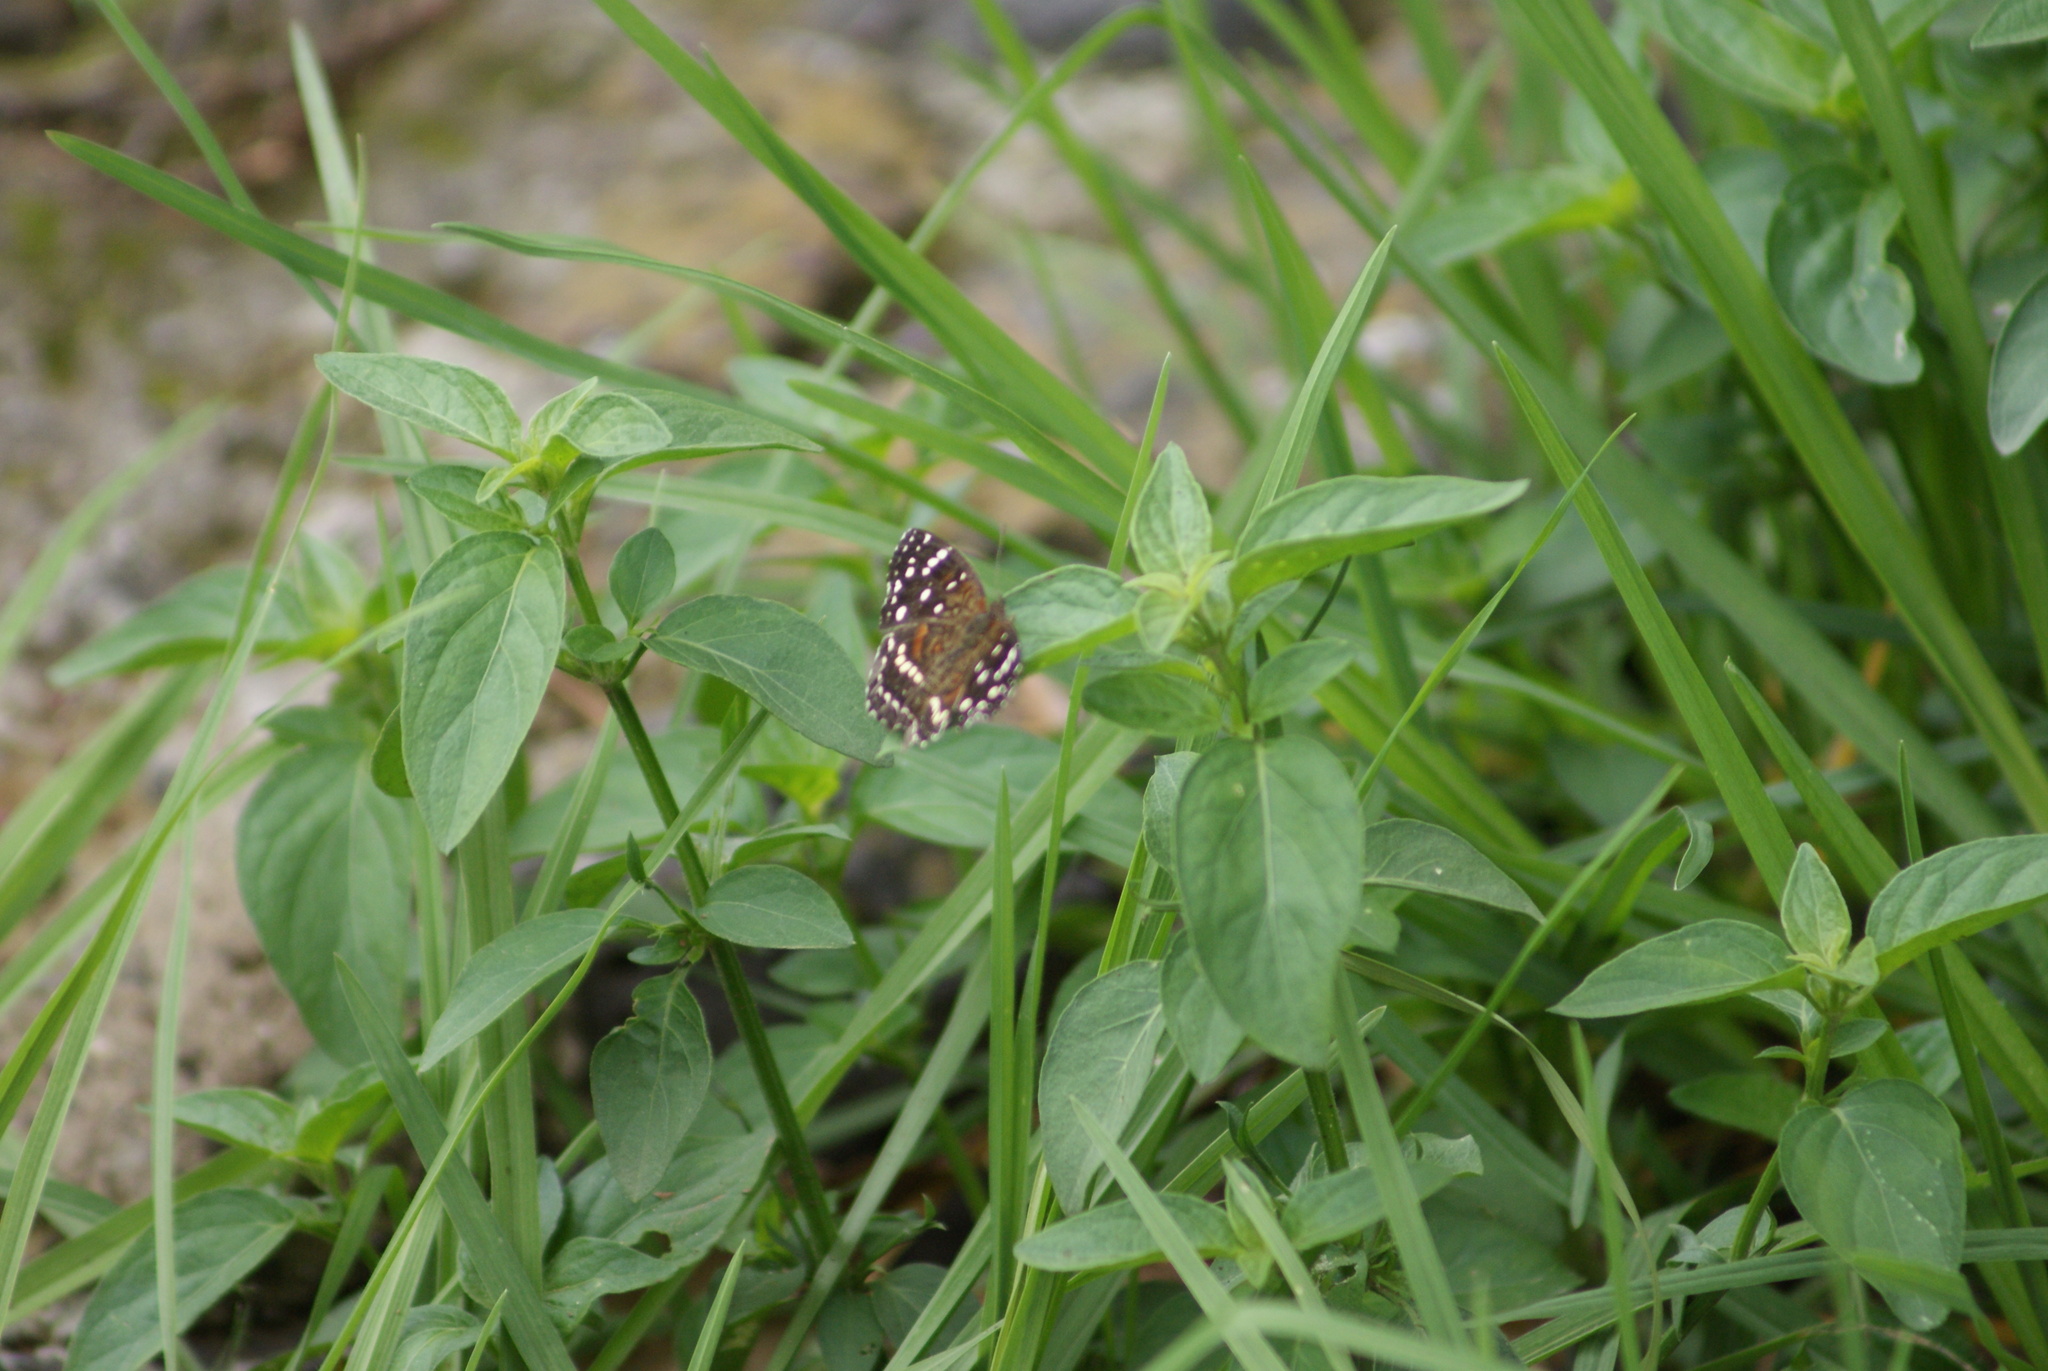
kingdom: Animalia
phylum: Arthropoda
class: Insecta
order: Lepidoptera
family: Nymphalidae
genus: Anthanassa
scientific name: Anthanassa texana
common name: Texan crescent
